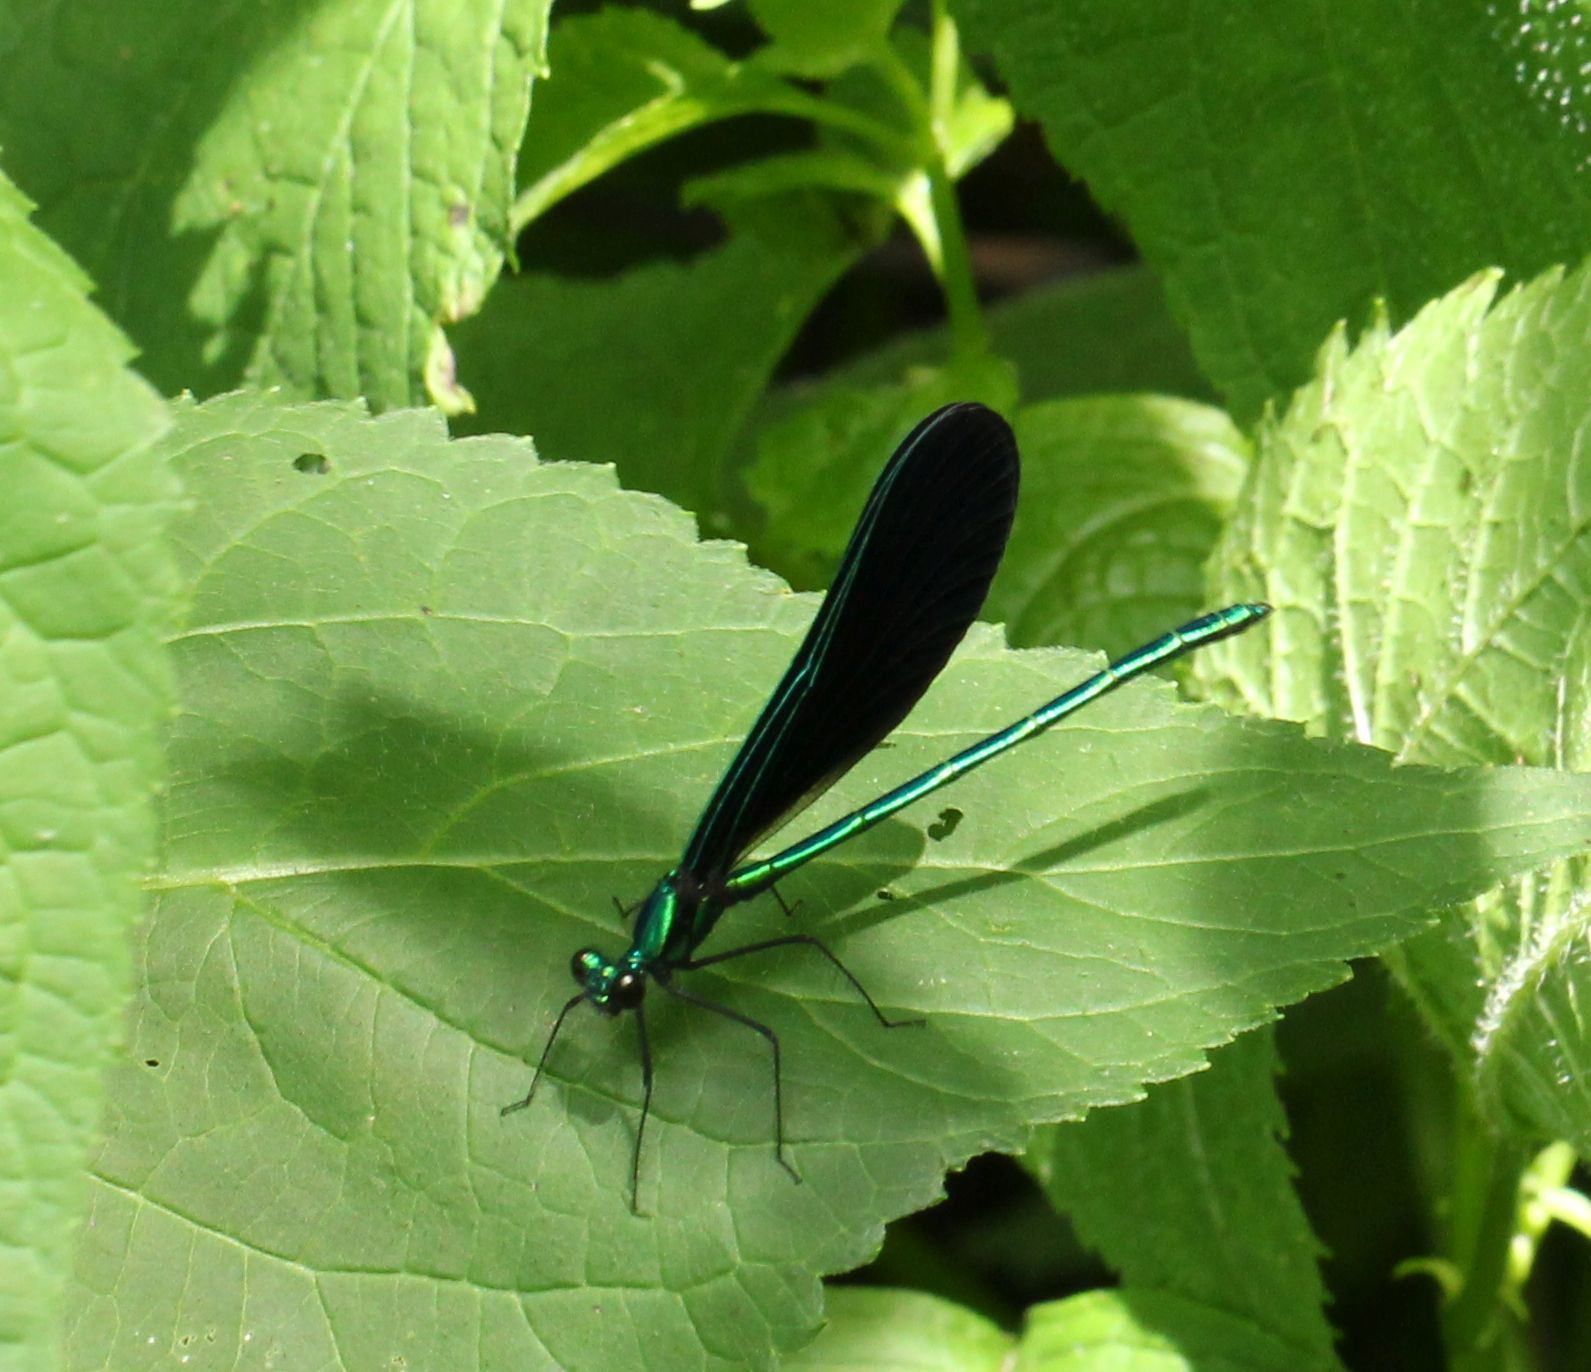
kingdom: Animalia
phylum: Arthropoda
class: Insecta
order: Odonata
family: Calopterygidae
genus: Calopteryx
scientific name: Calopteryx maculata
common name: Ebony jewelwing
